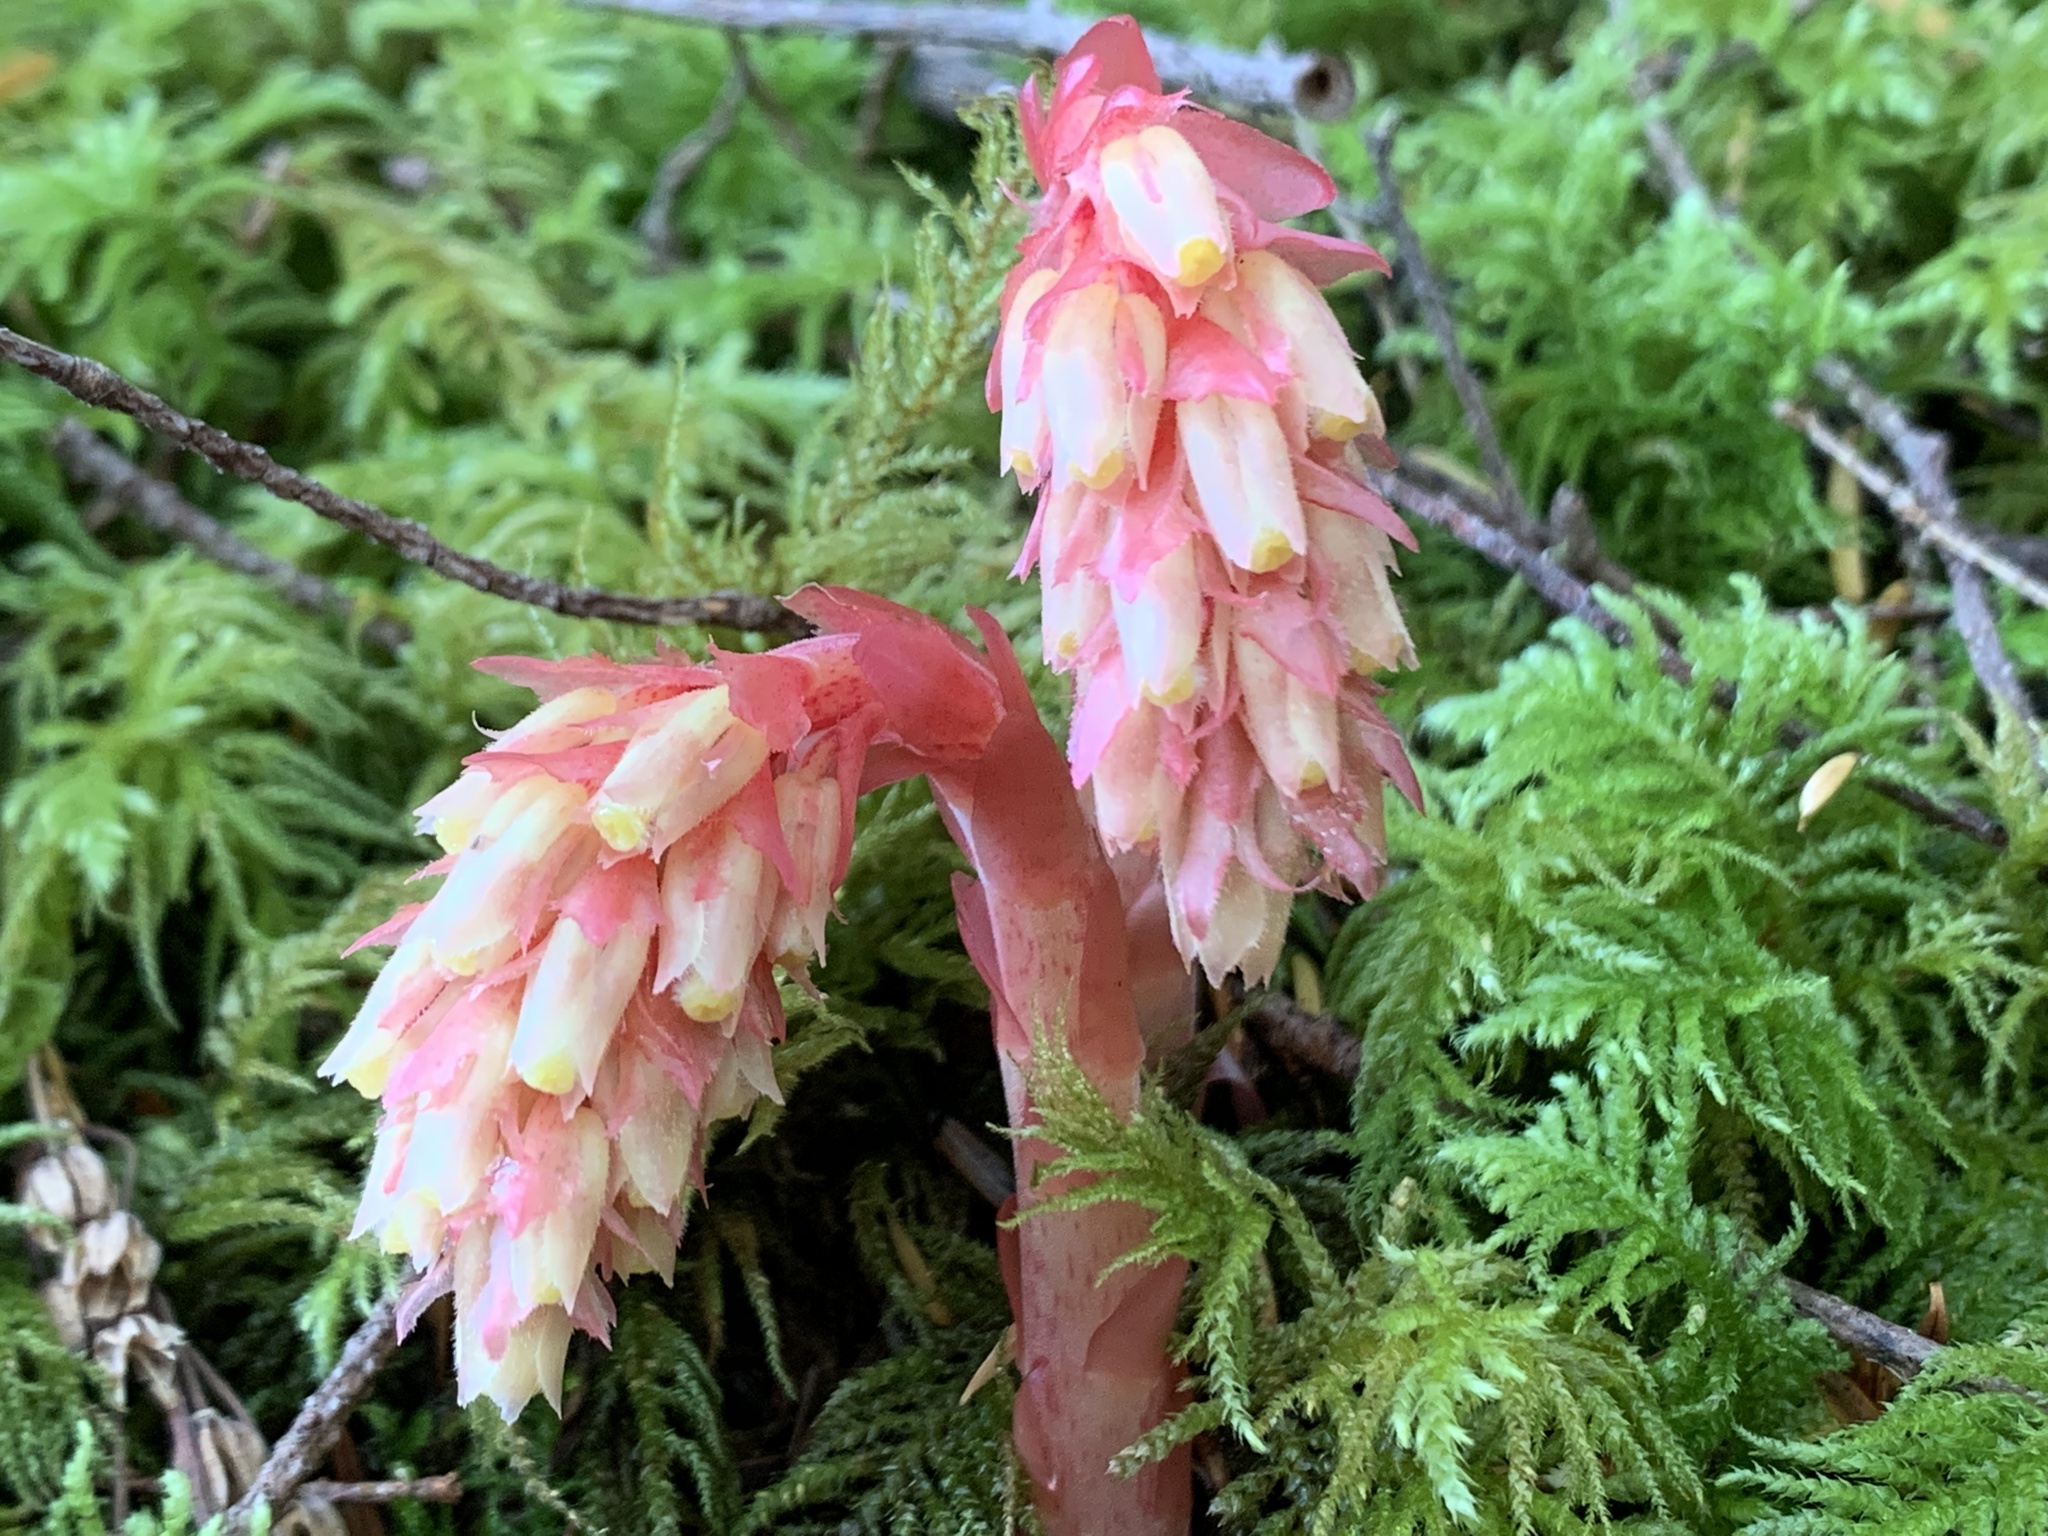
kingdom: Plantae
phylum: Tracheophyta
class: Magnoliopsida
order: Ericales
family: Ericaceae
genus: Hypopitys
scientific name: Hypopitys monotropa
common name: Yellow bird's-nest
